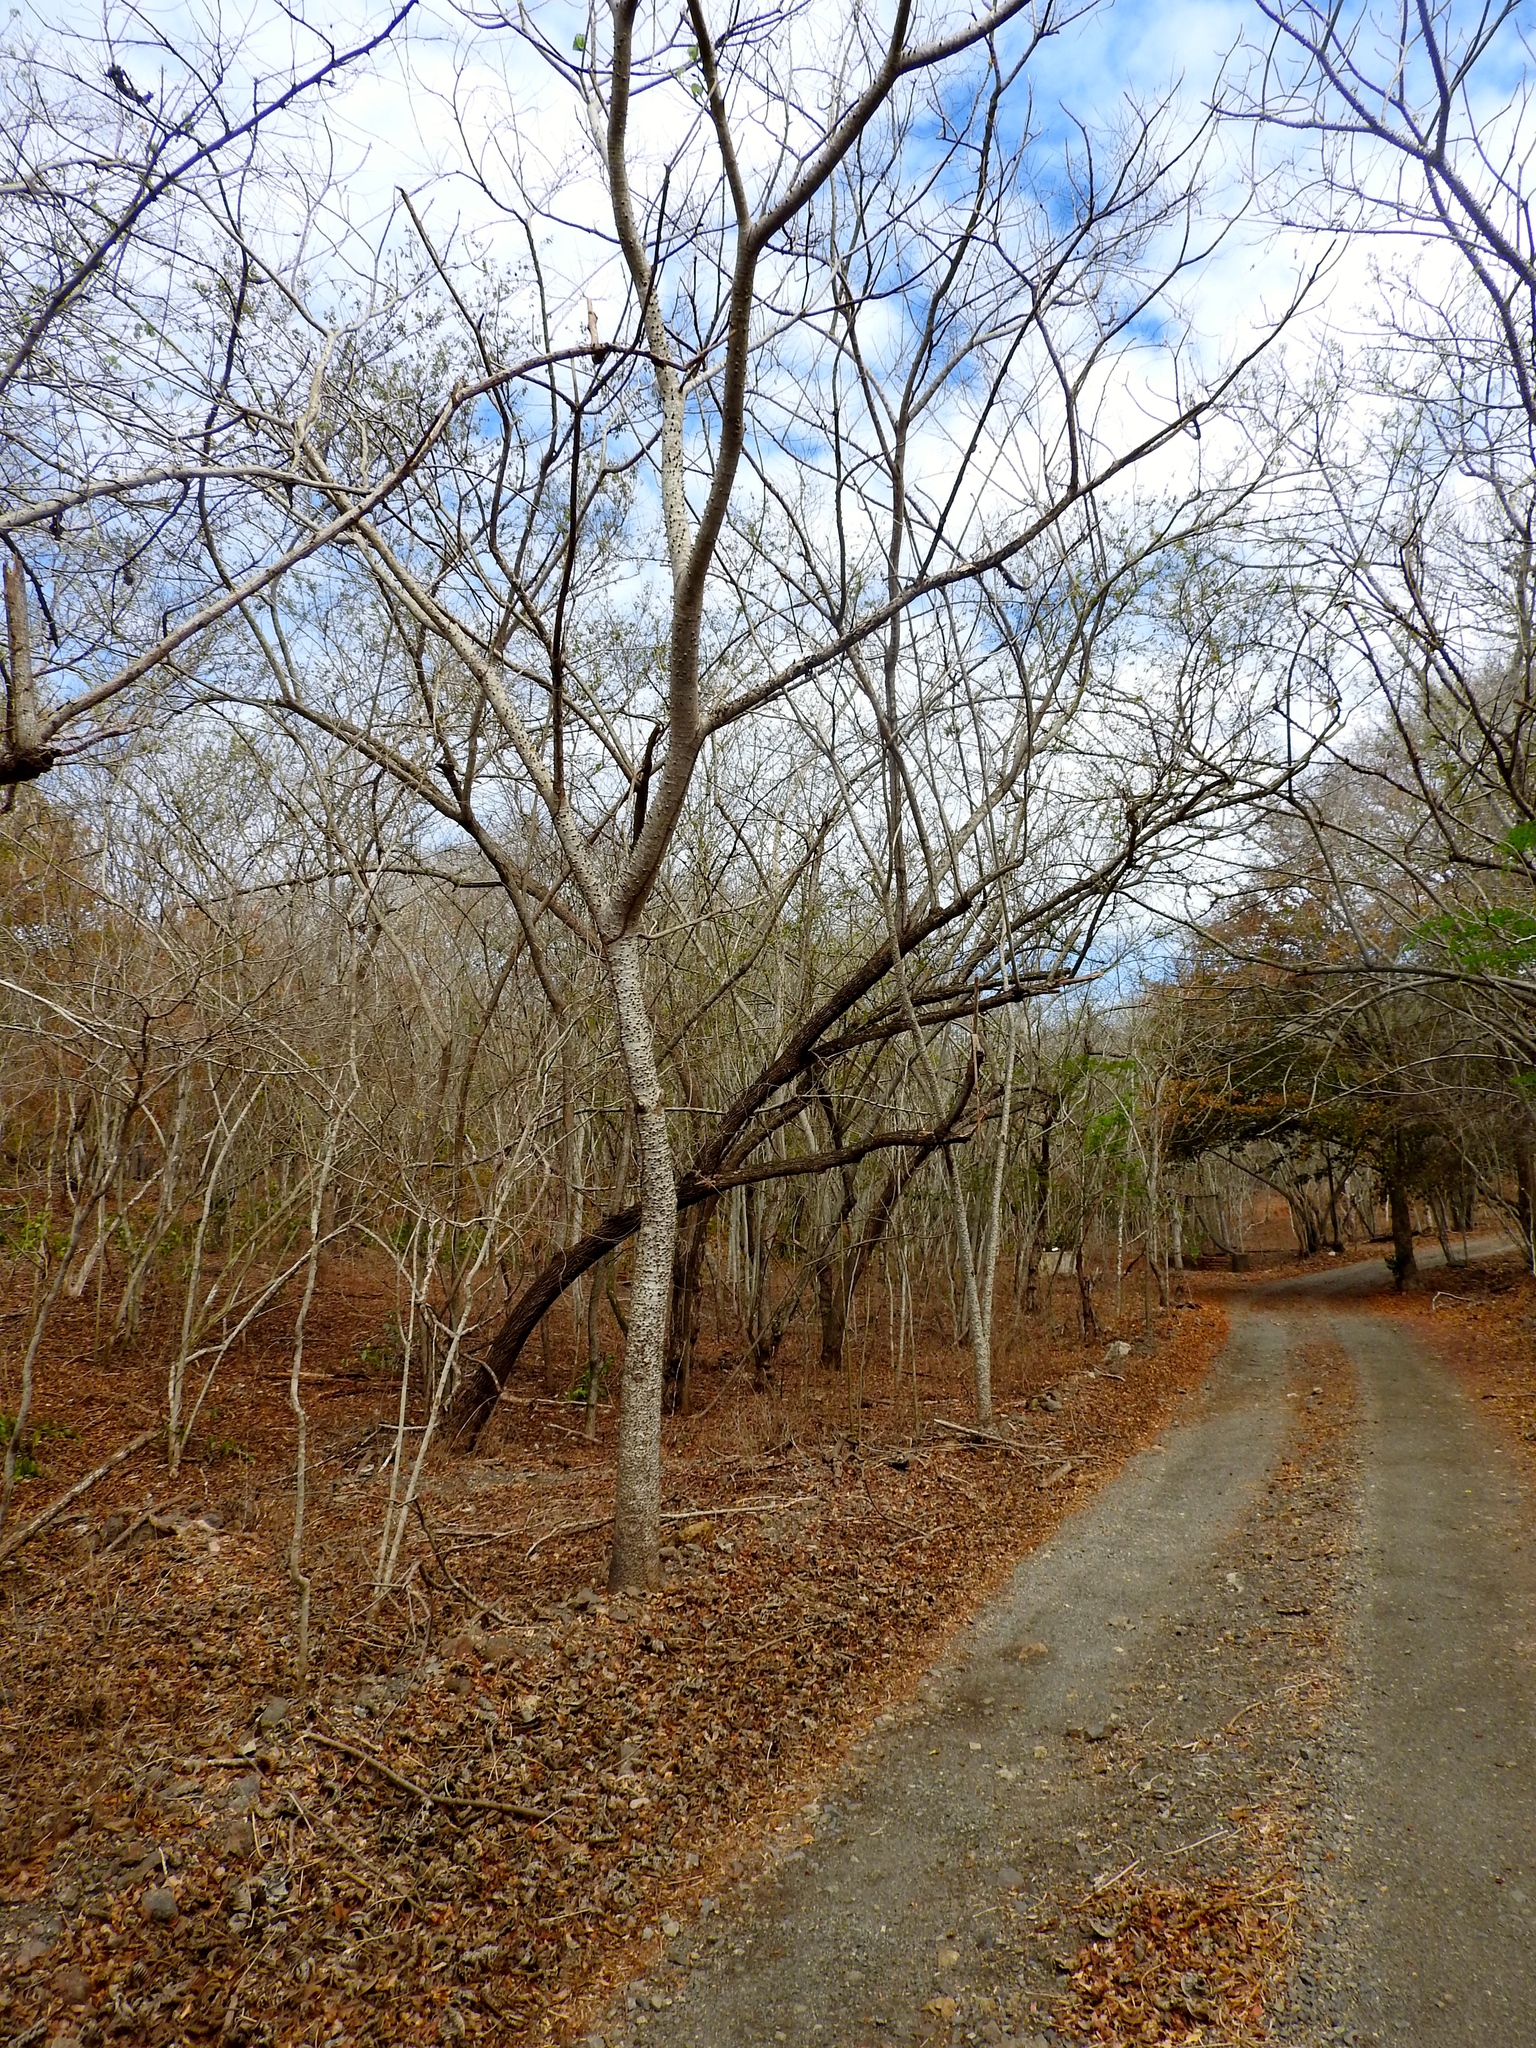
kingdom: Plantae
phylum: Tracheophyta
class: Magnoliopsida
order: Malpighiales
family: Euphorbiaceae
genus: Hura
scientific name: Hura polyandra
